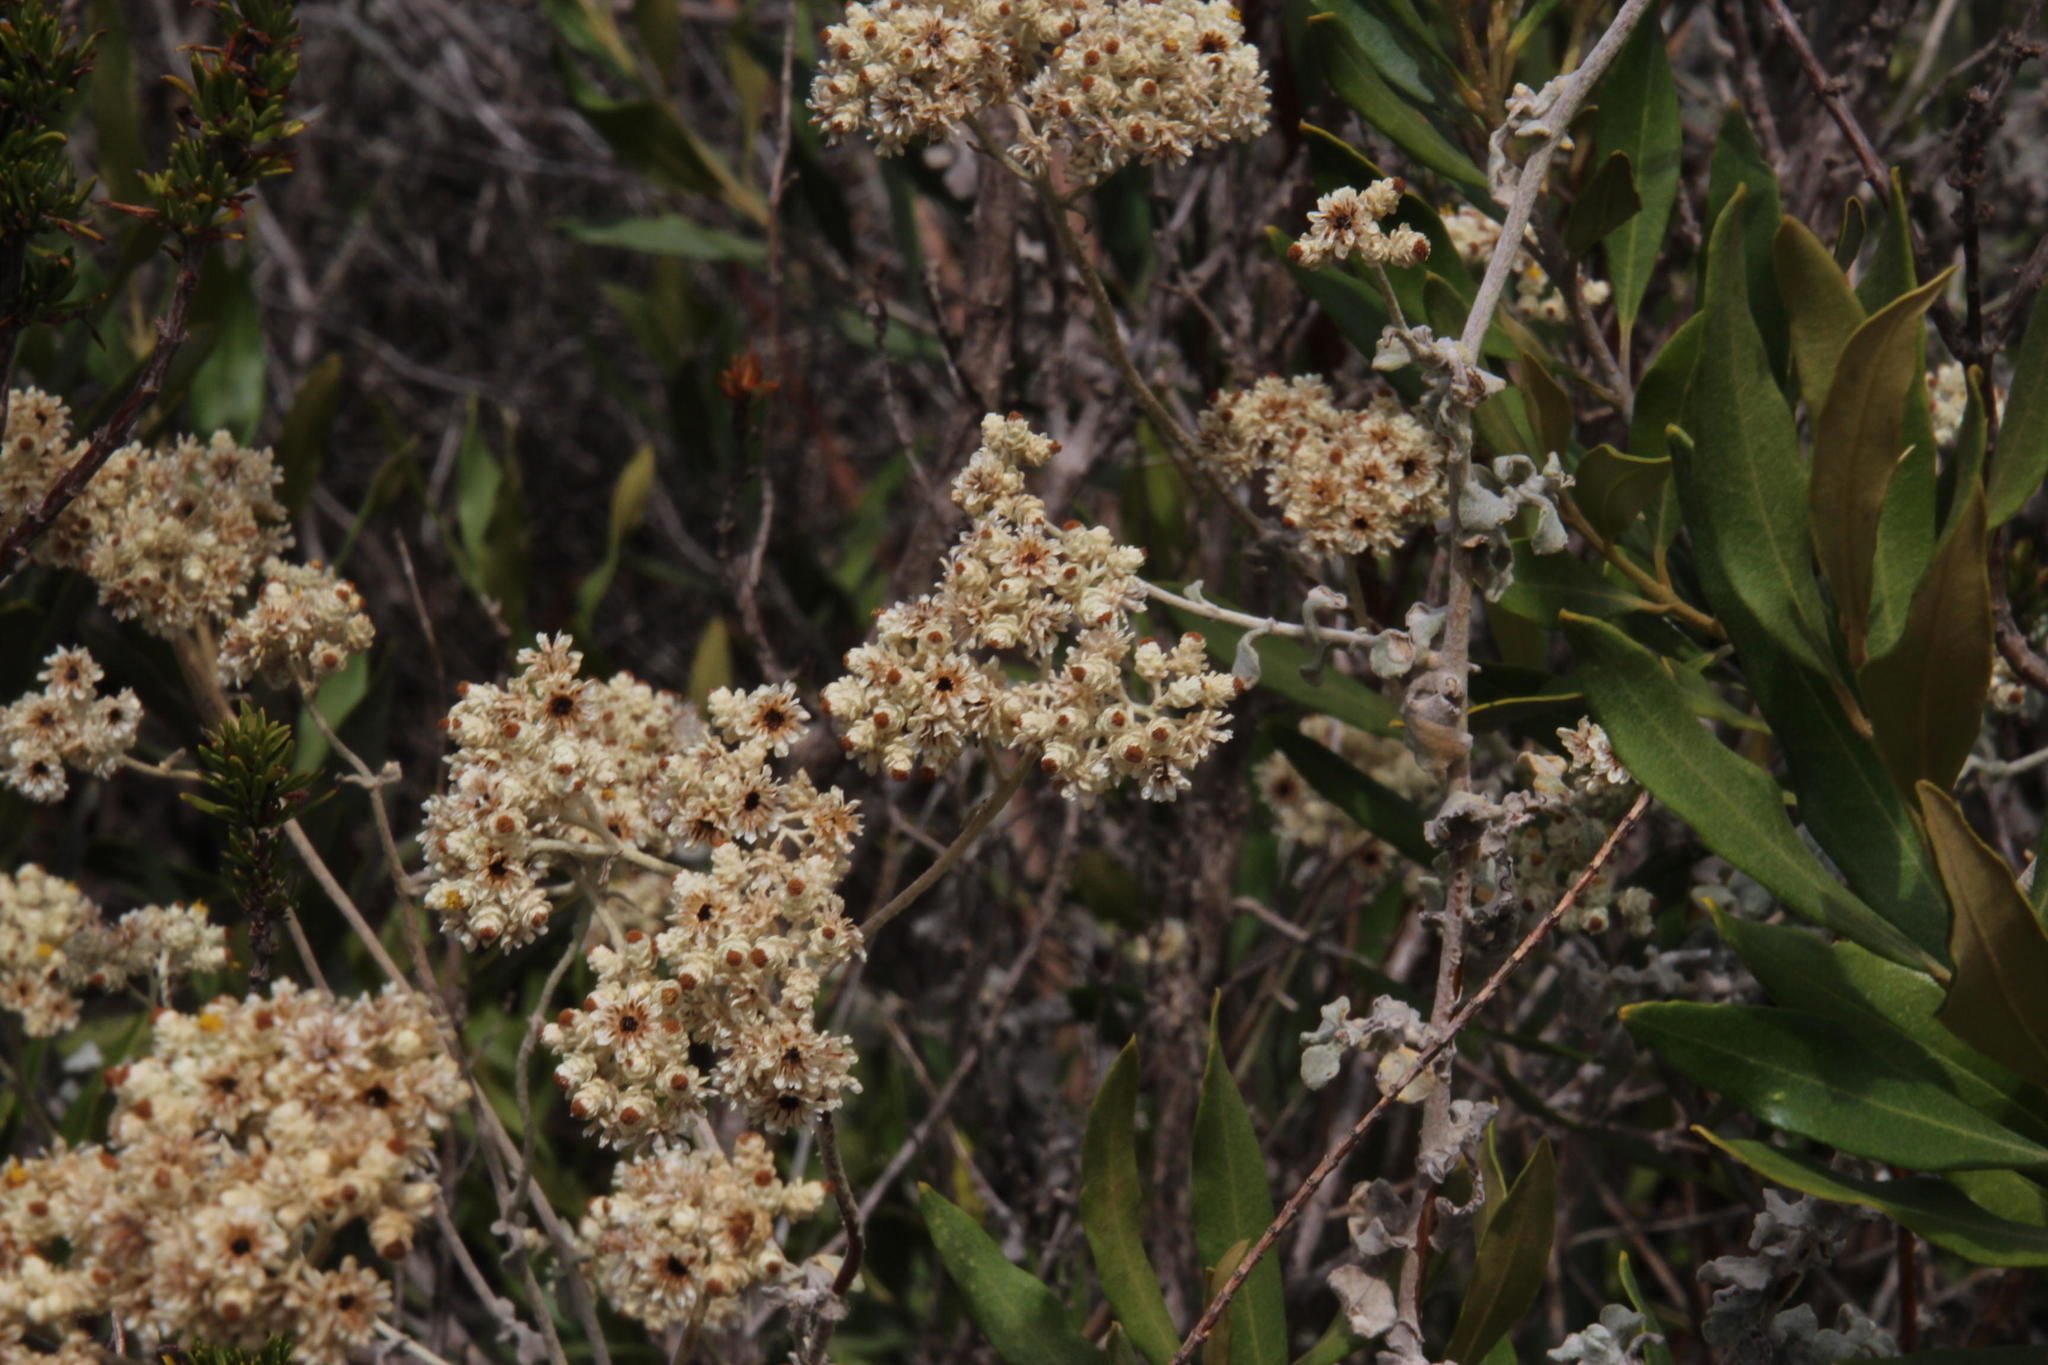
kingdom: Plantae
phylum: Tracheophyta
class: Magnoliopsida
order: Asterales
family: Asteraceae
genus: Helichrysum
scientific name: Helichrysum patulum
